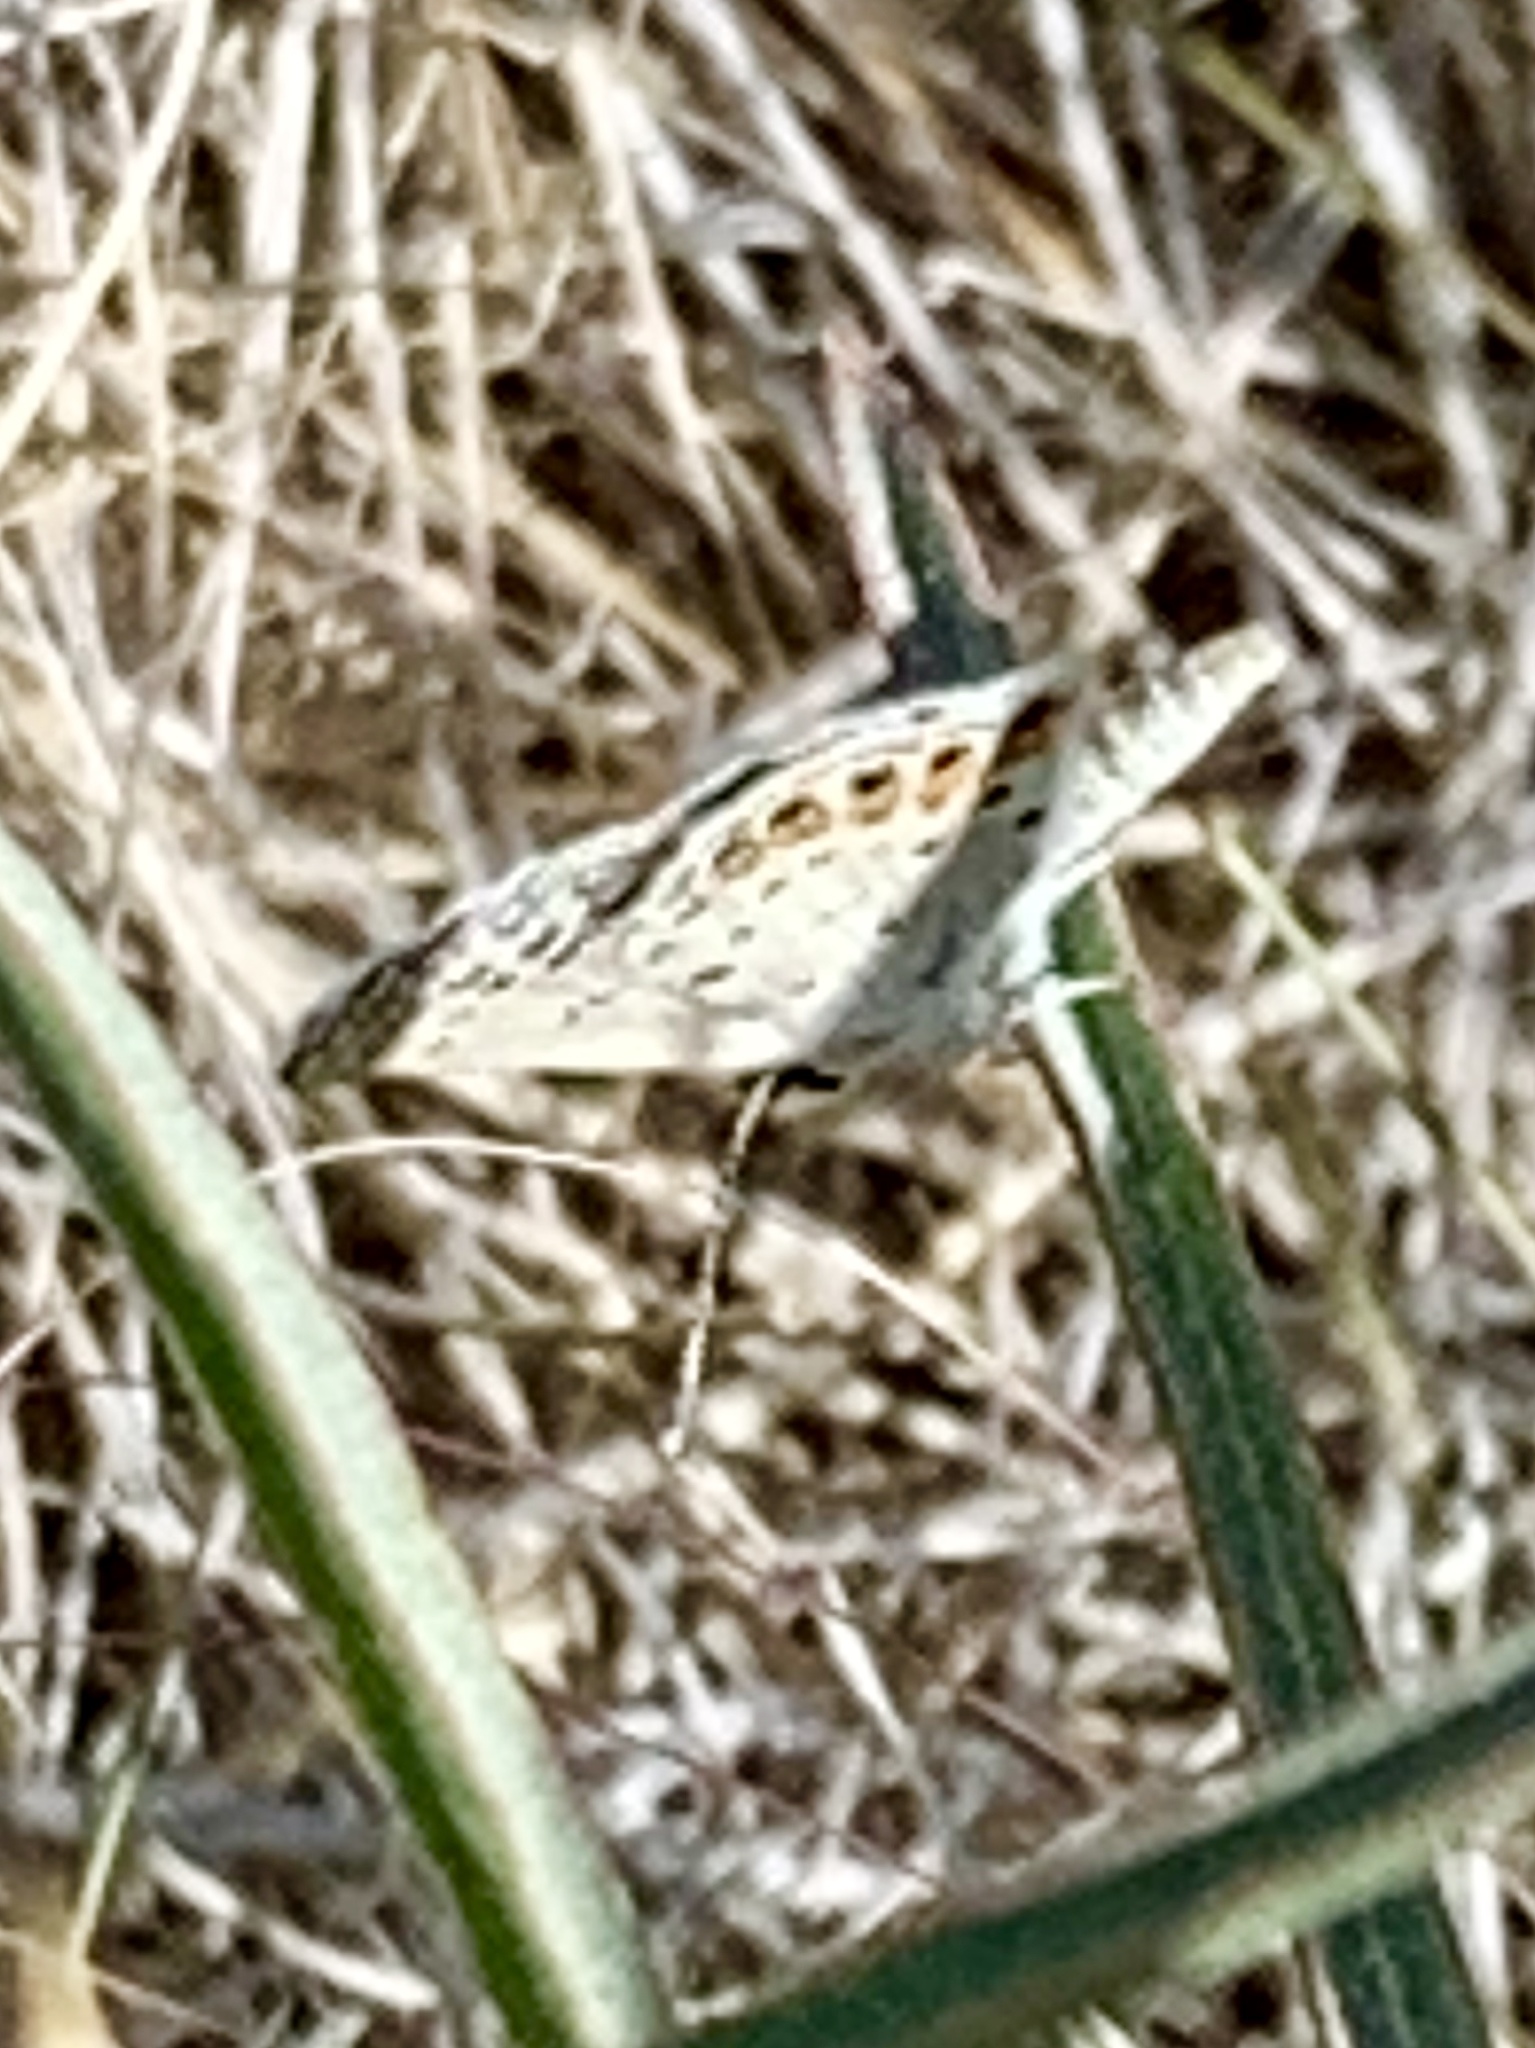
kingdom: Animalia
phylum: Arthropoda
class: Insecta
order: Lepidoptera
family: Lycaenidae
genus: Icaricia
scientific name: Icaricia lupini
